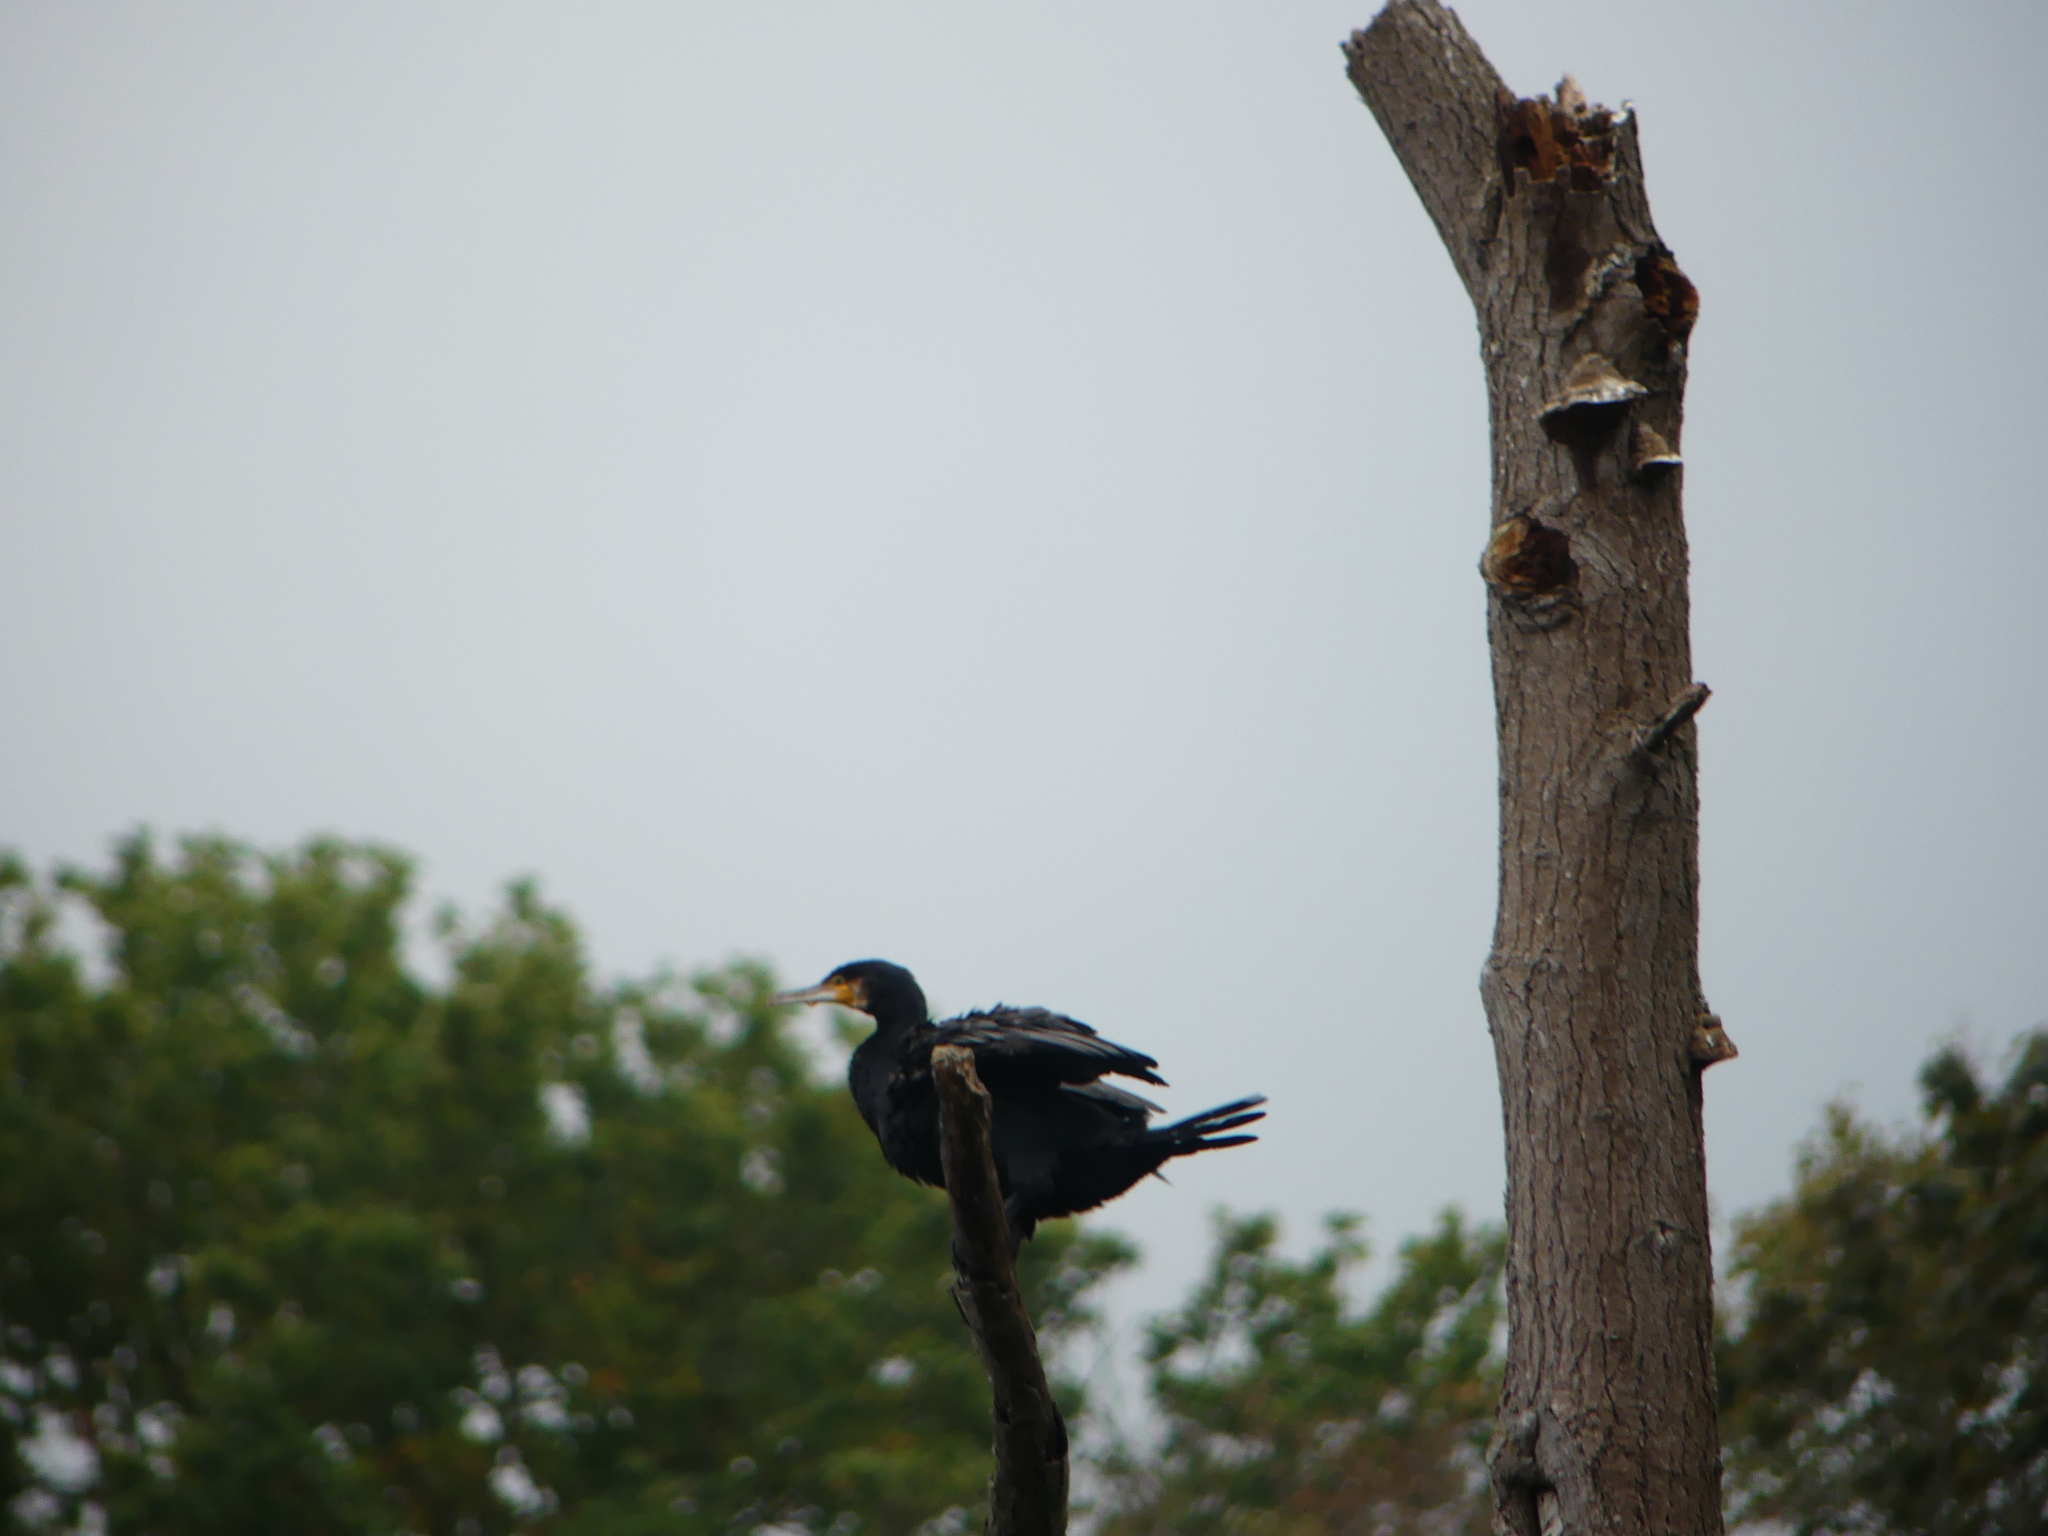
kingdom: Animalia
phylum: Chordata
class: Aves
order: Suliformes
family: Phalacrocoracidae
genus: Phalacrocorax
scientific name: Phalacrocorax carbo
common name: Great cormorant
